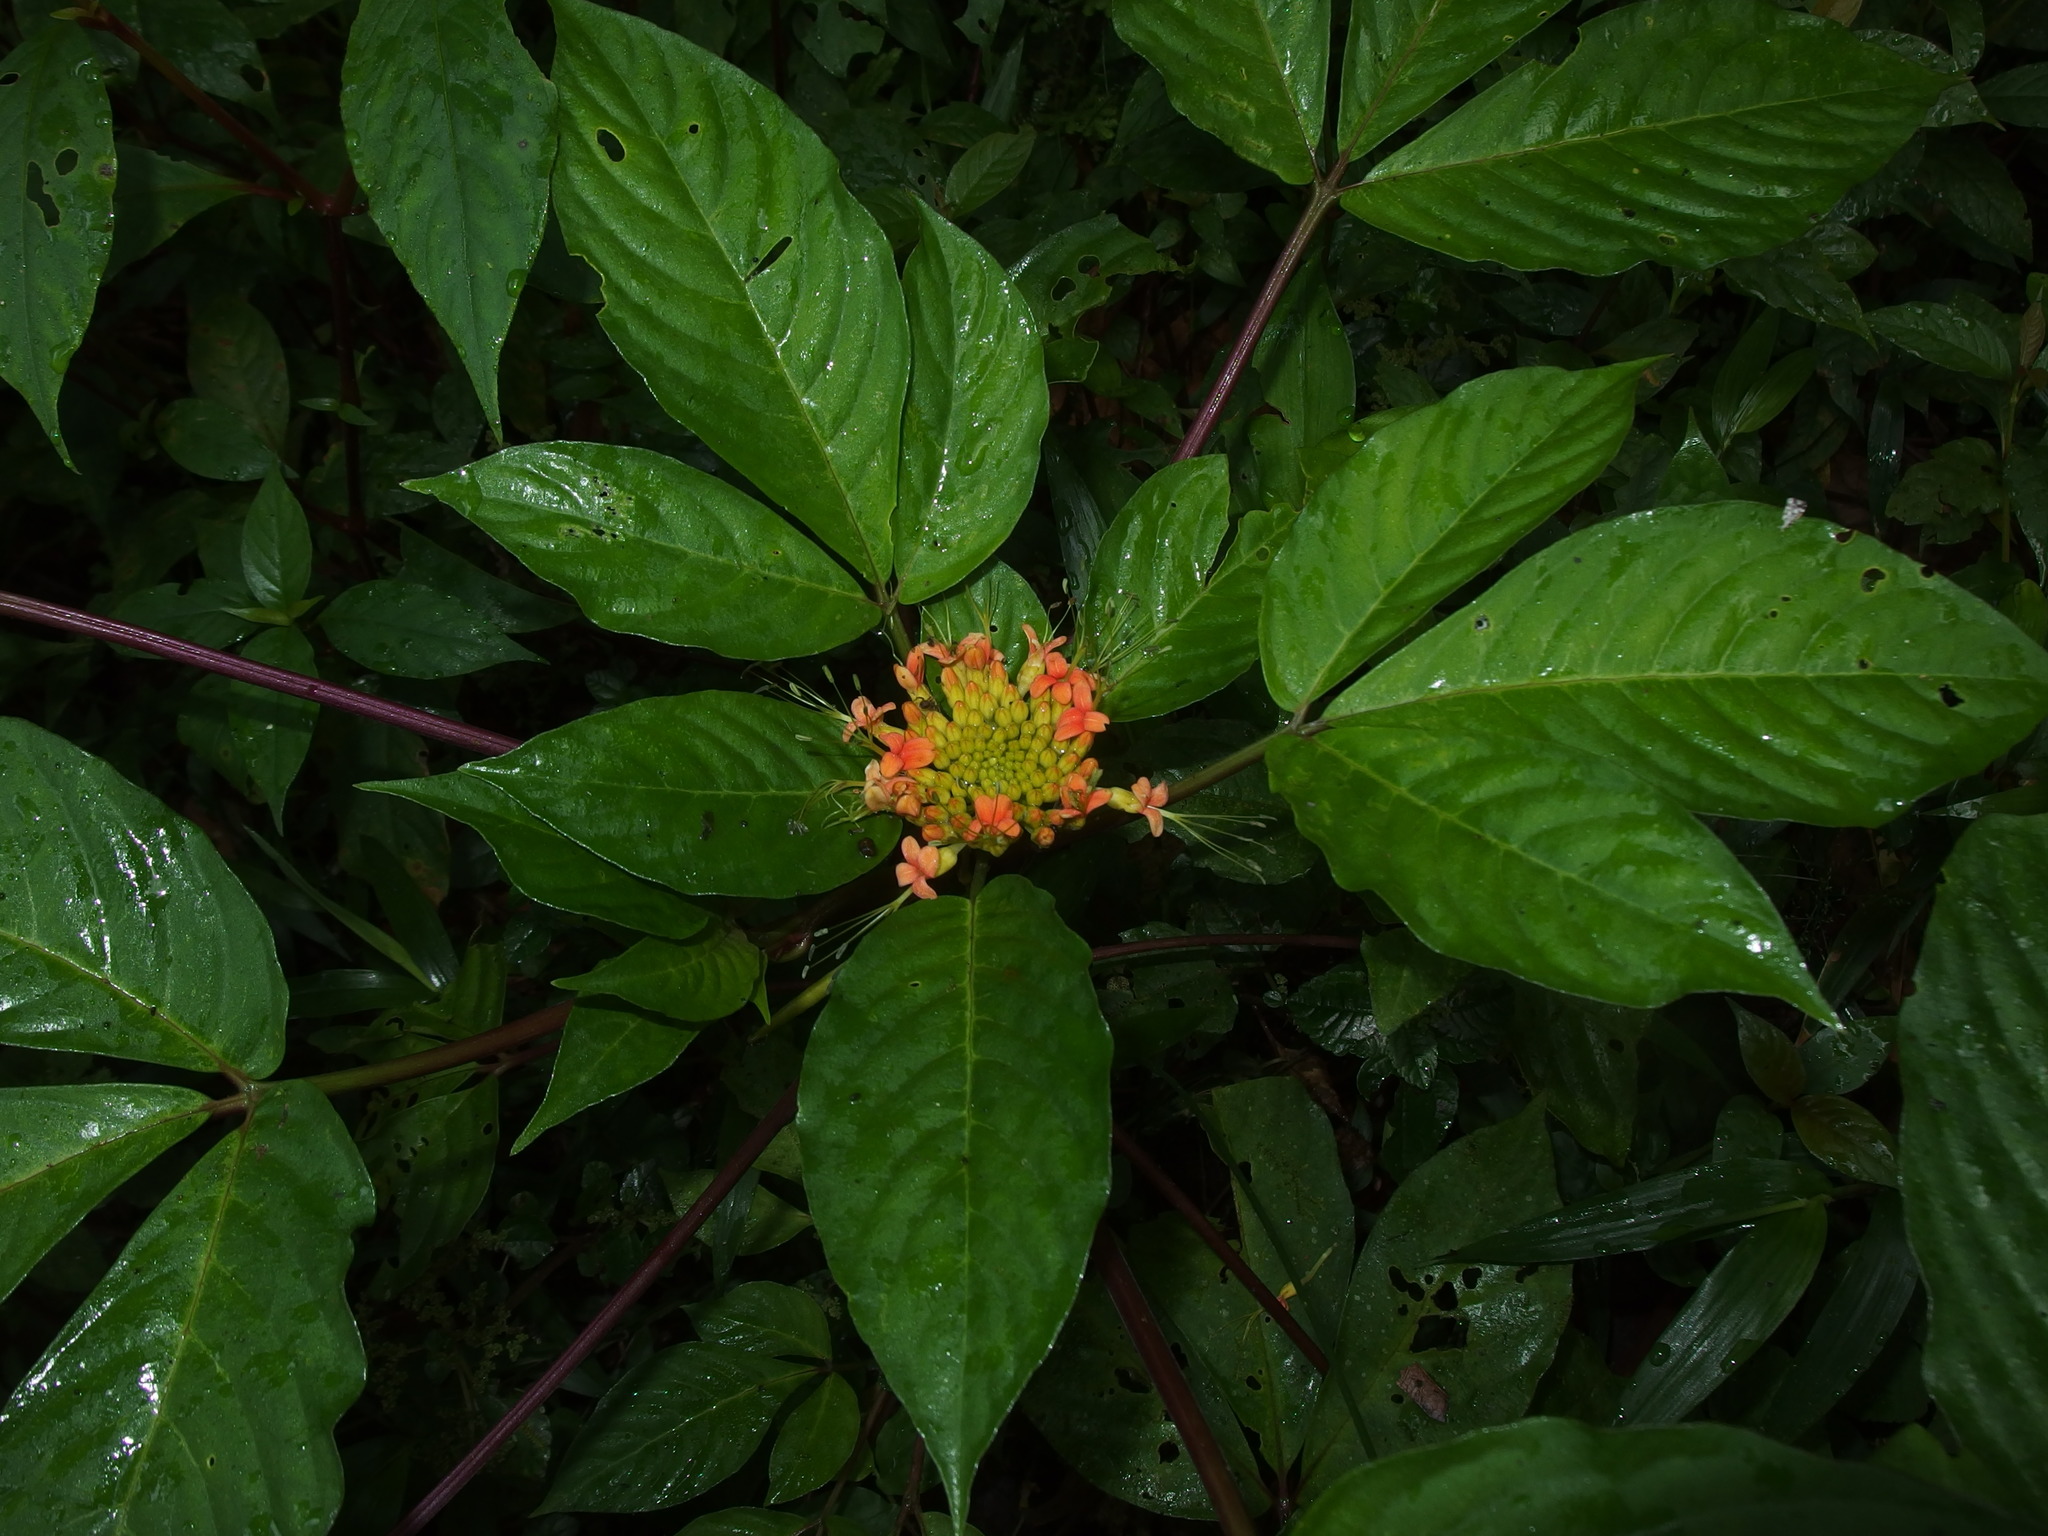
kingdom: Plantae
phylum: Tracheophyta
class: Magnoliopsida
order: Brassicales
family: Cleomaceae
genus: Podandrogyne
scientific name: Podandrogyne brevipedunculata
